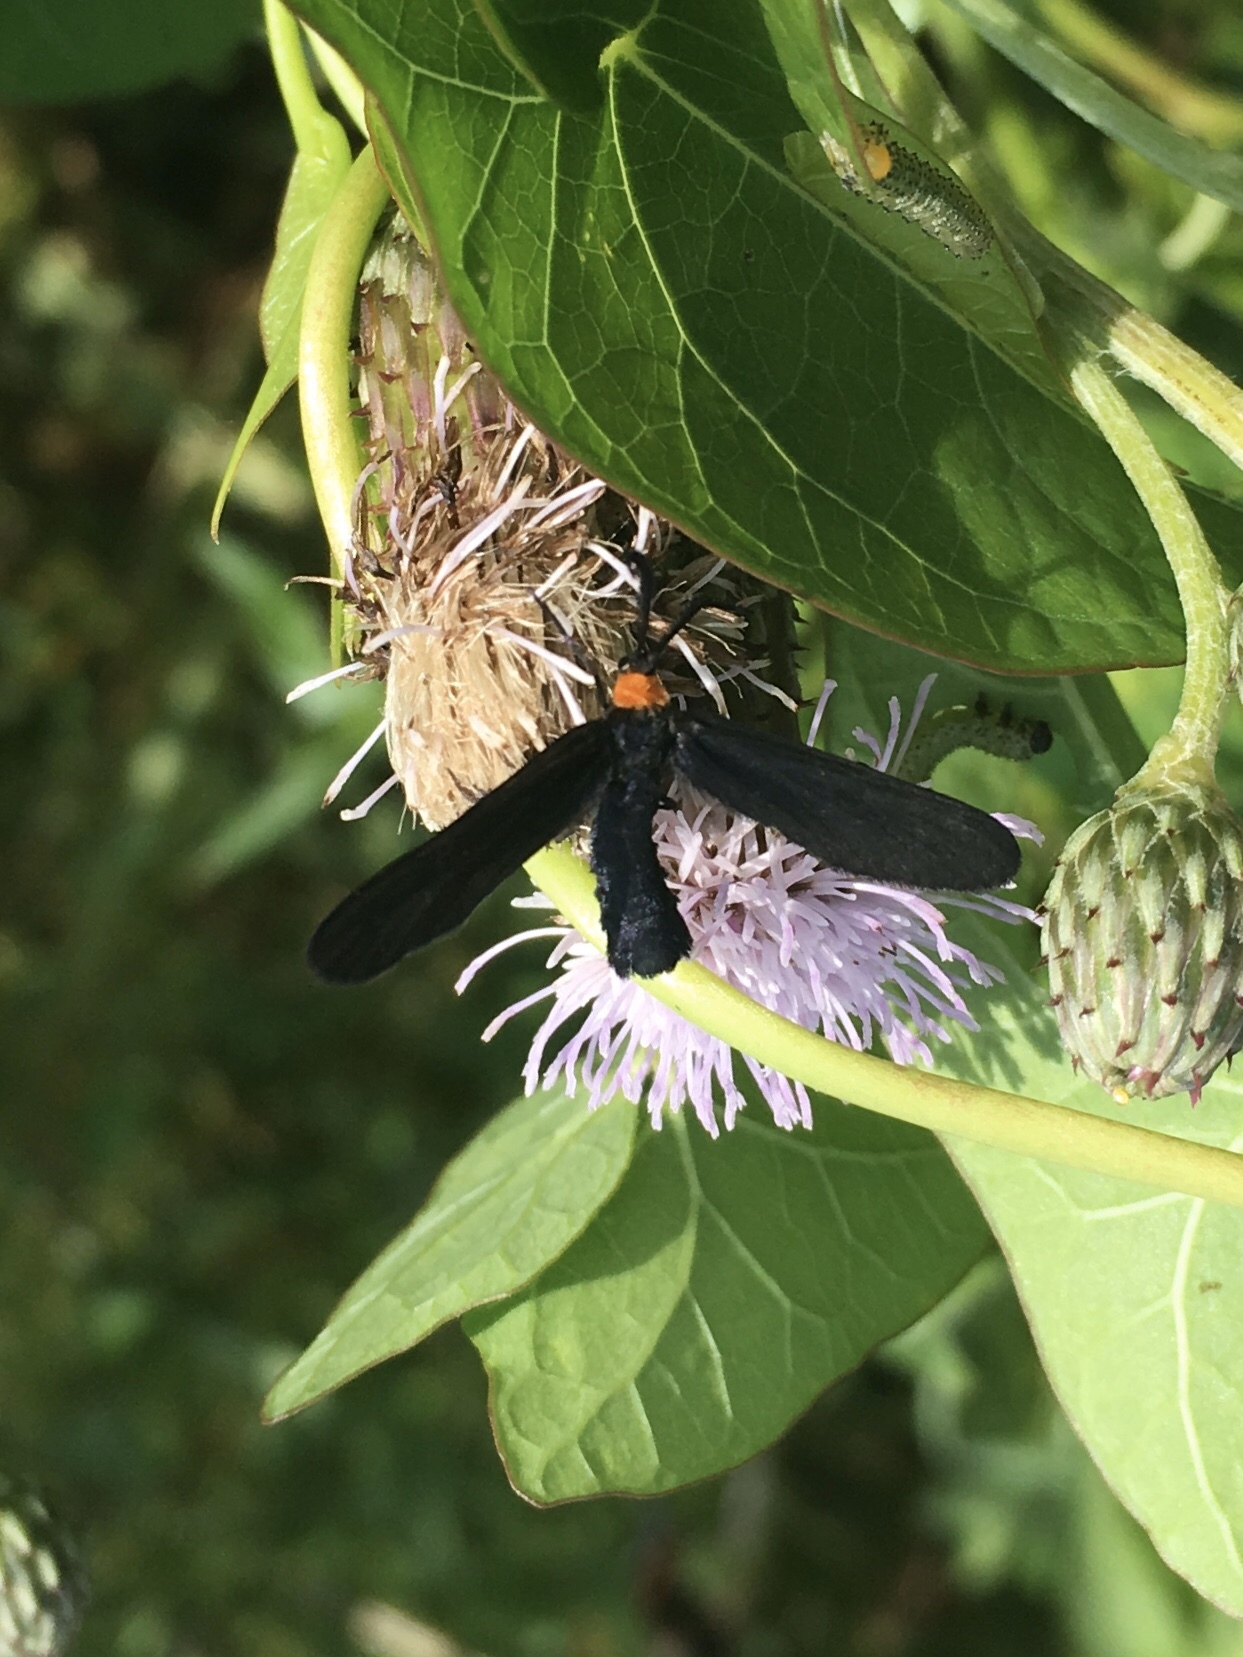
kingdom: Animalia
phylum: Arthropoda
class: Insecta
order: Lepidoptera
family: Zygaenidae
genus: Harrisina
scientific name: Harrisina americana
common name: Grapeleaf skeletonizer moth
